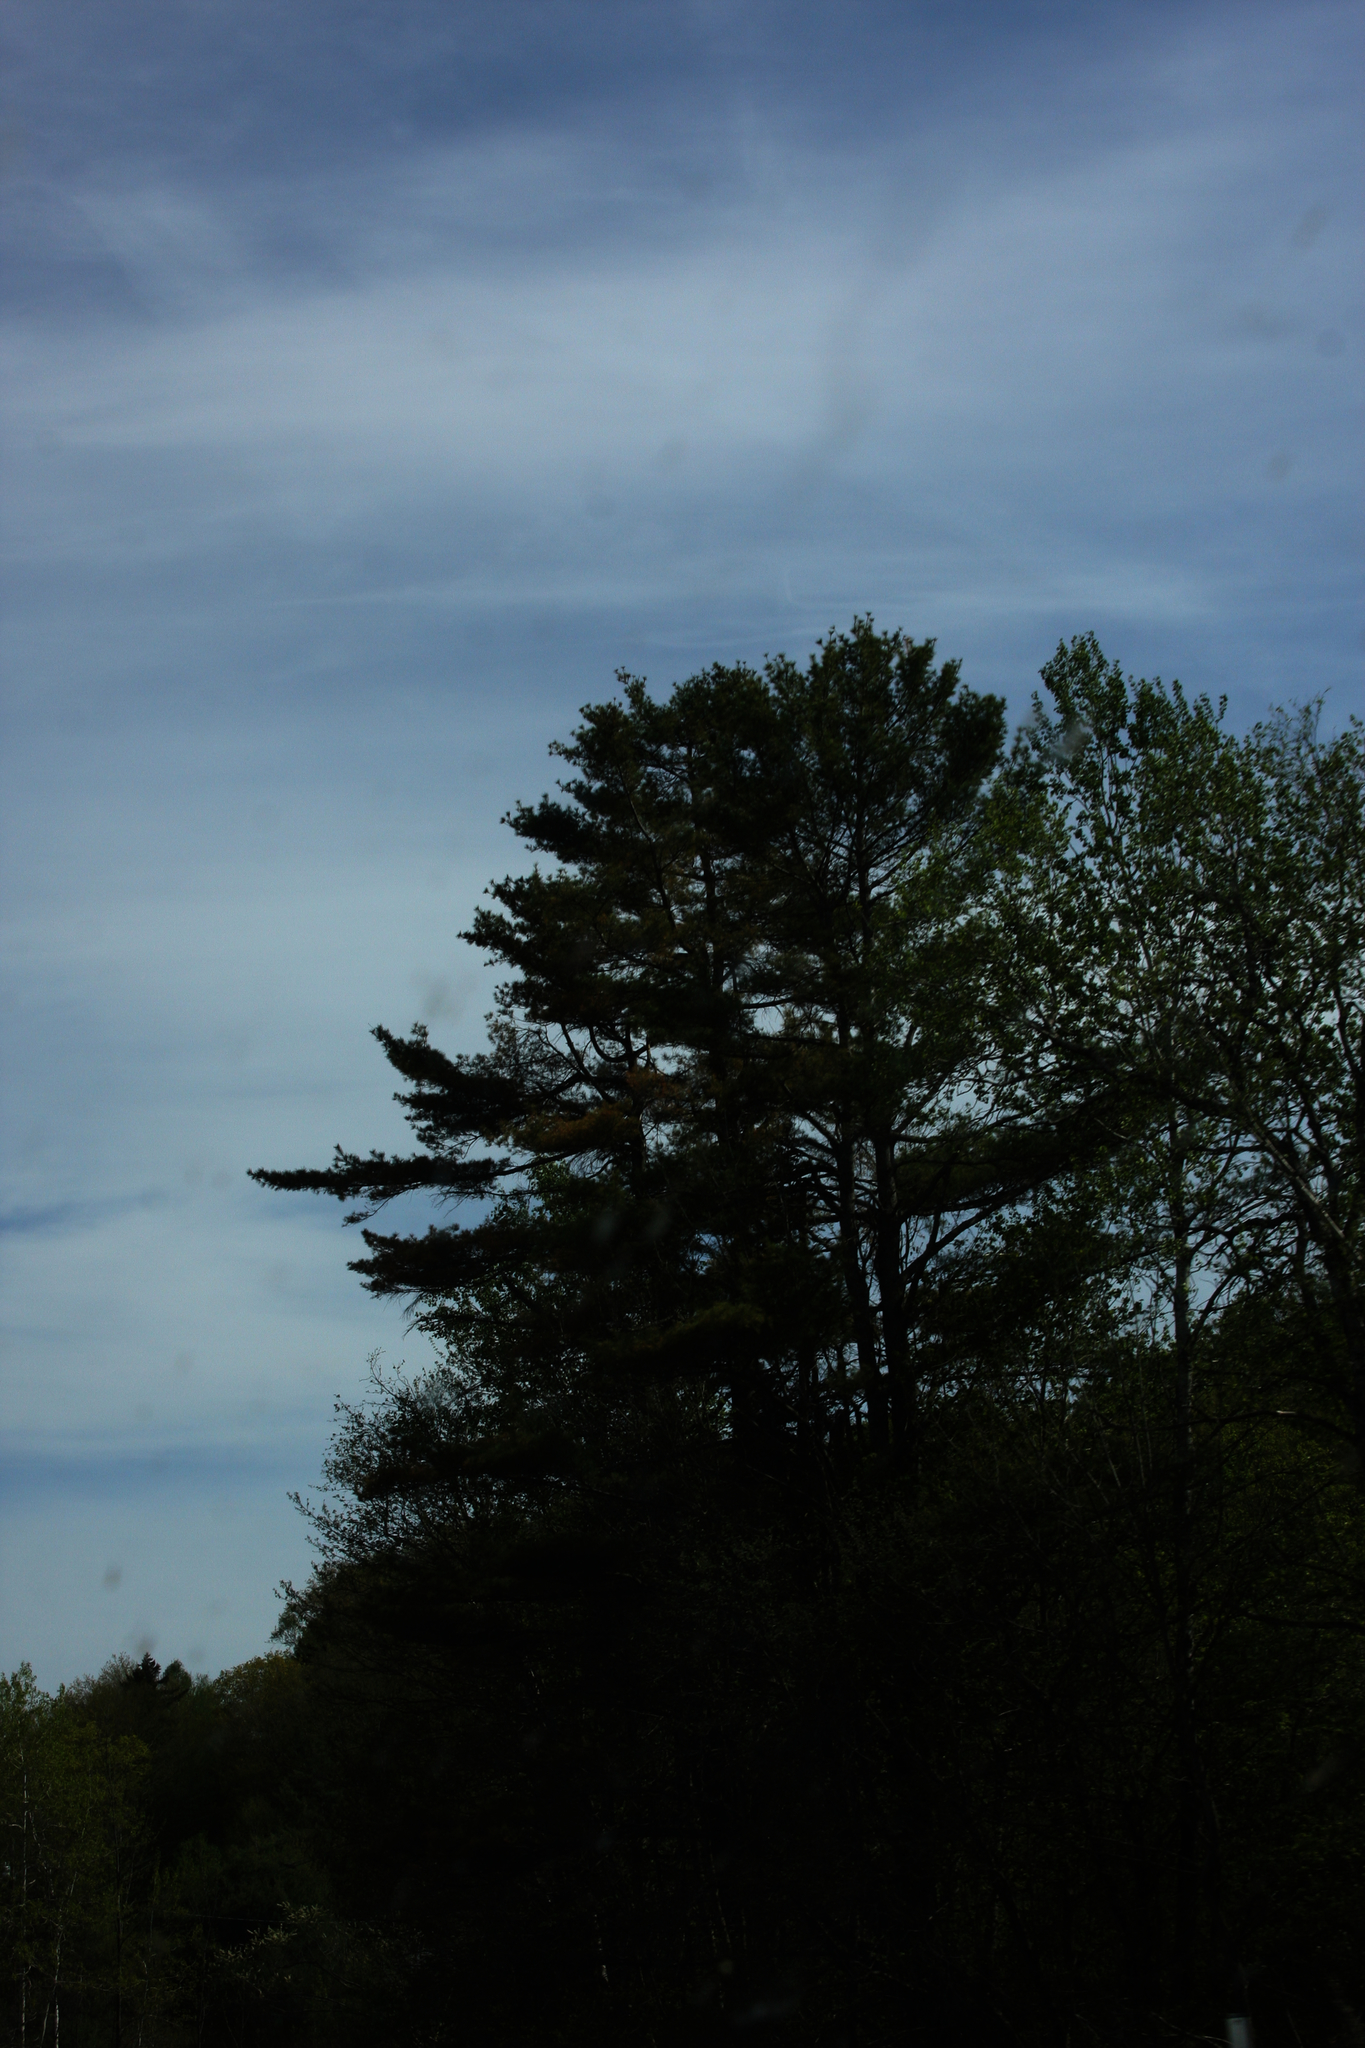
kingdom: Plantae
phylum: Tracheophyta
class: Pinopsida
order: Pinales
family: Pinaceae
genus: Pinus
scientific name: Pinus strobus
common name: Weymouth pine
